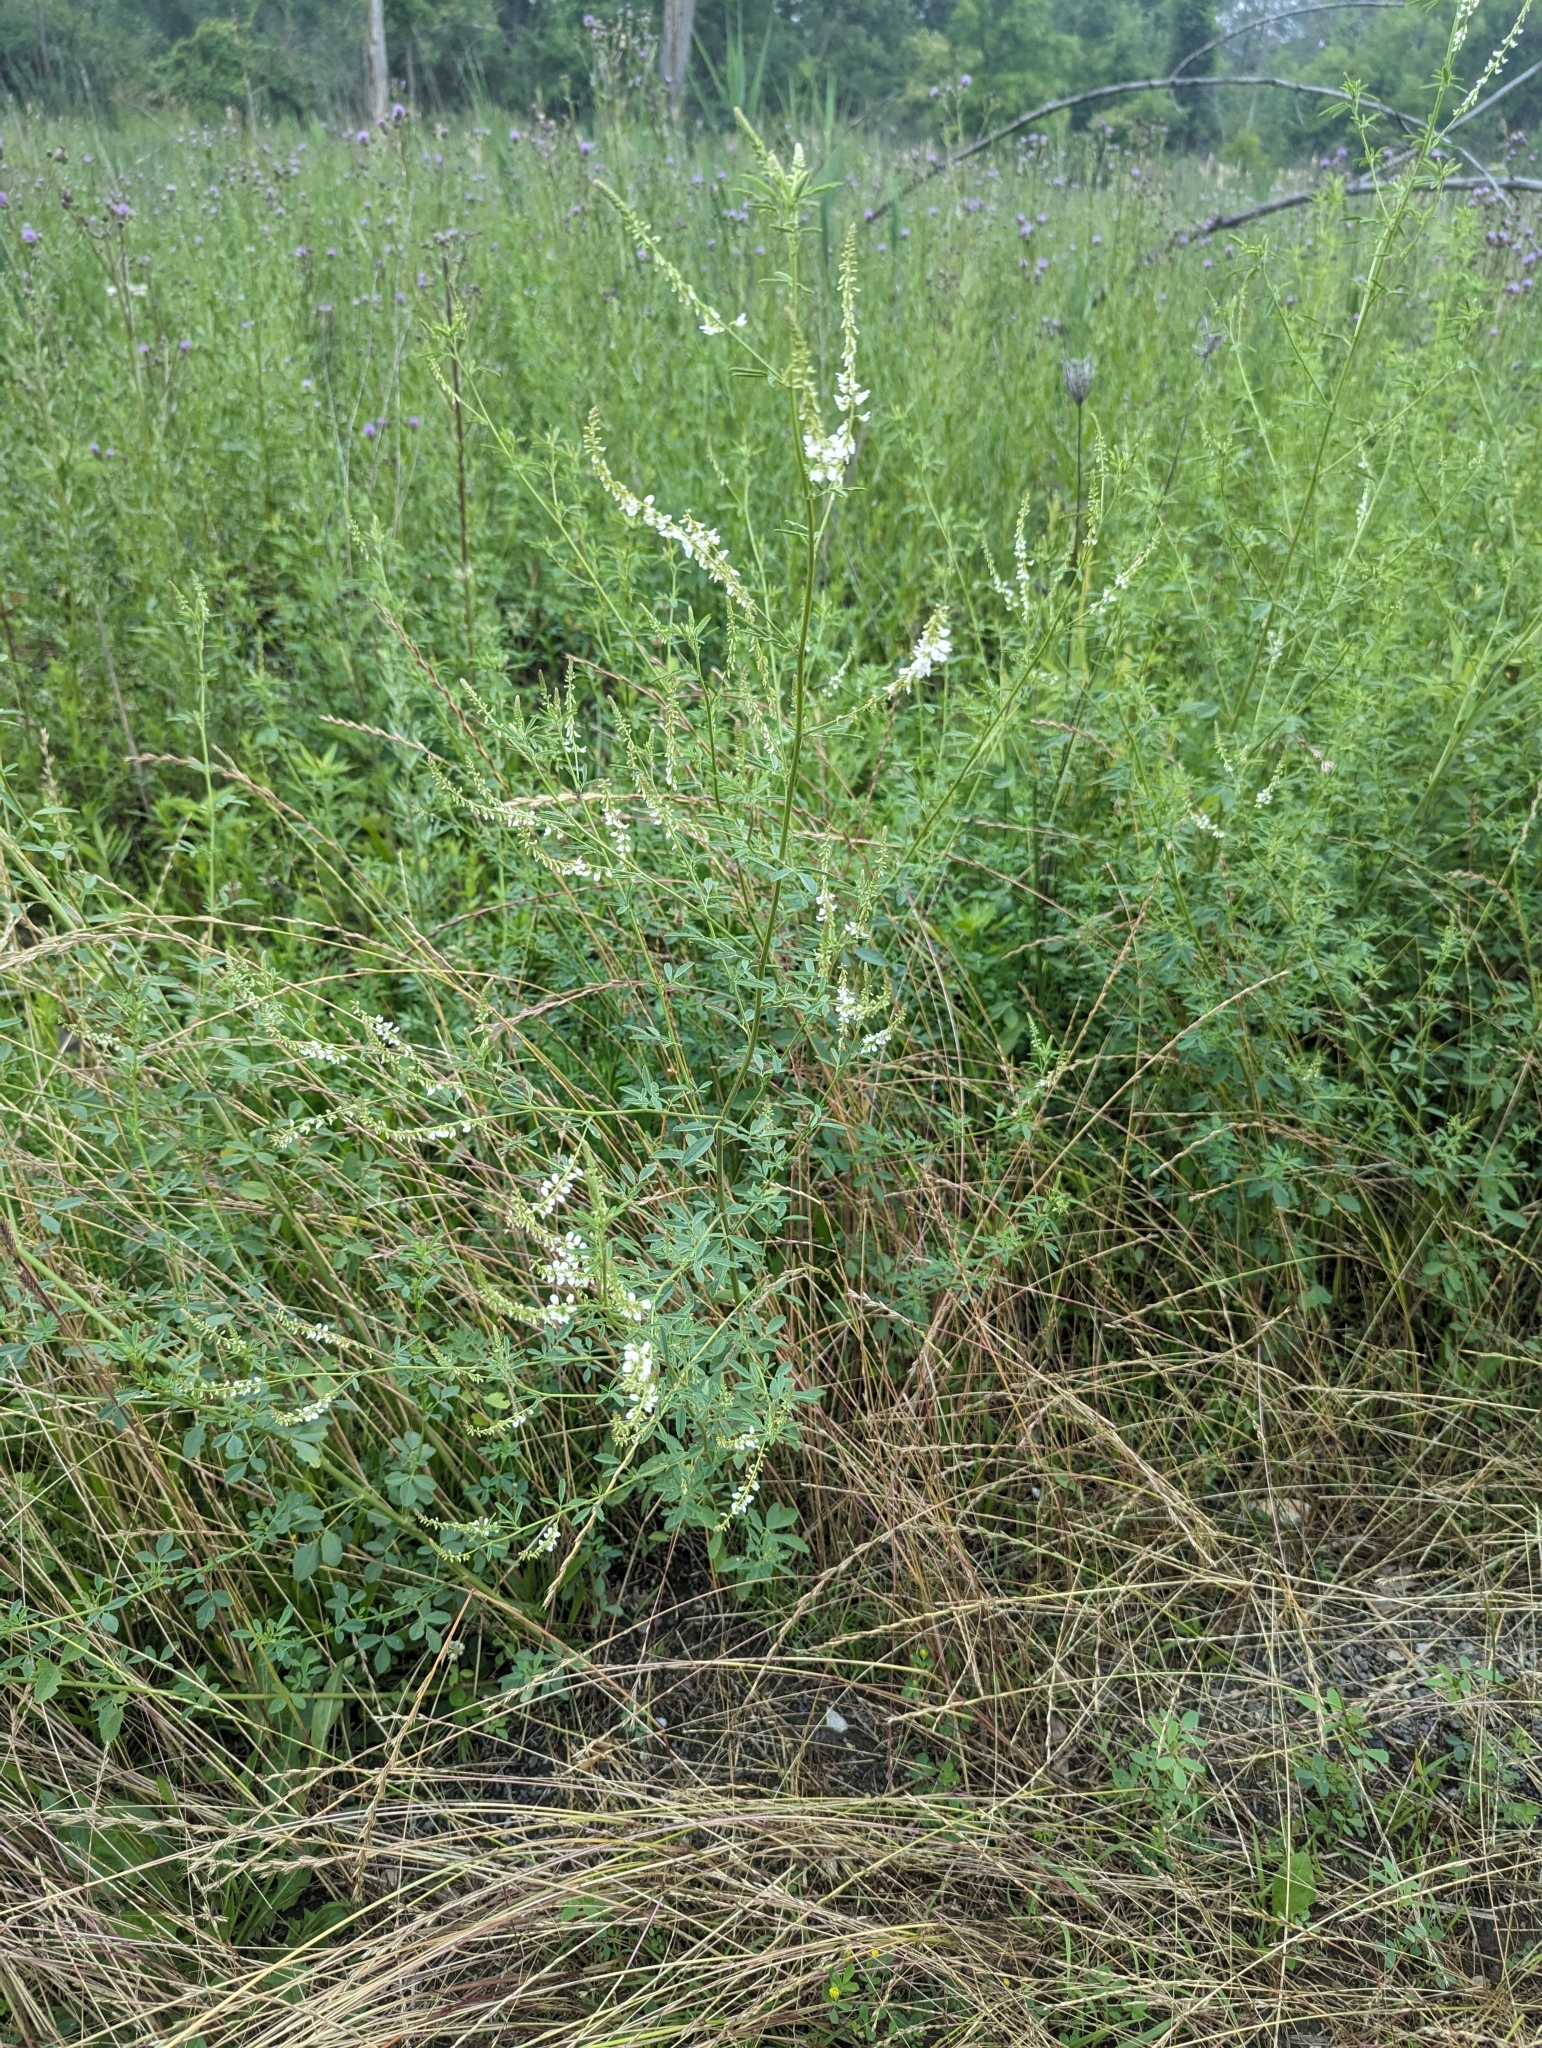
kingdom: Plantae
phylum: Tracheophyta
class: Magnoliopsida
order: Fabales
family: Fabaceae
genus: Melilotus
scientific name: Melilotus albus
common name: White melilot
